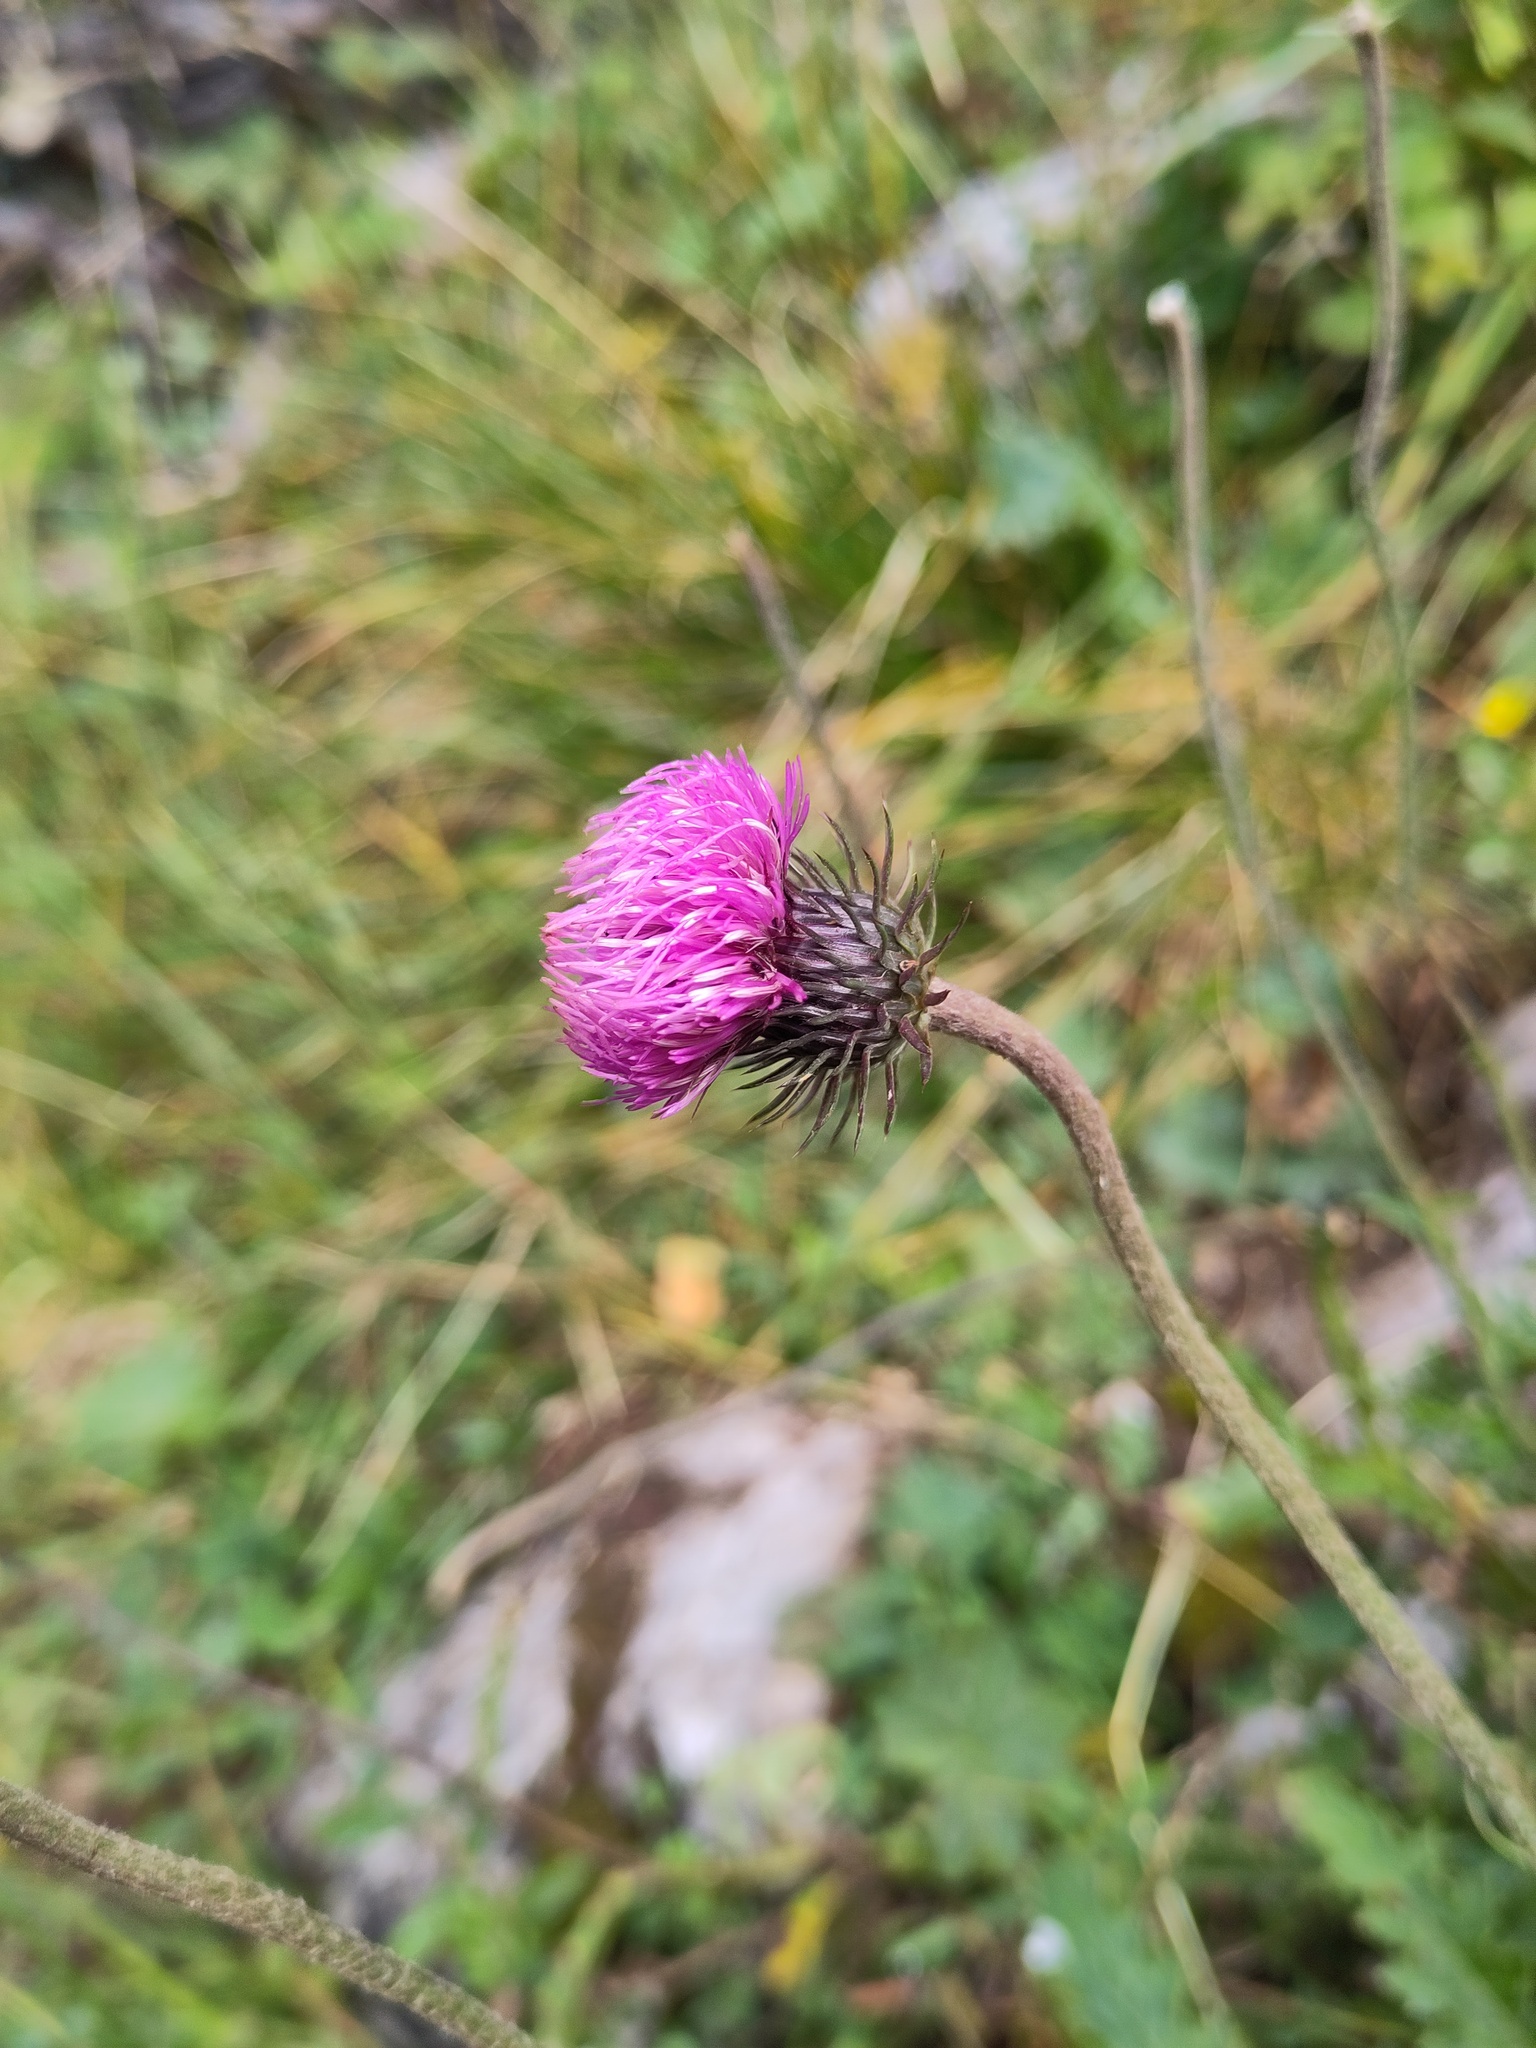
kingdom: Plantae
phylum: Tracheophyta
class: Magnoliopsida
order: Asterales
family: Asteraceae
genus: Carduus
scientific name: Carduus defloratus
